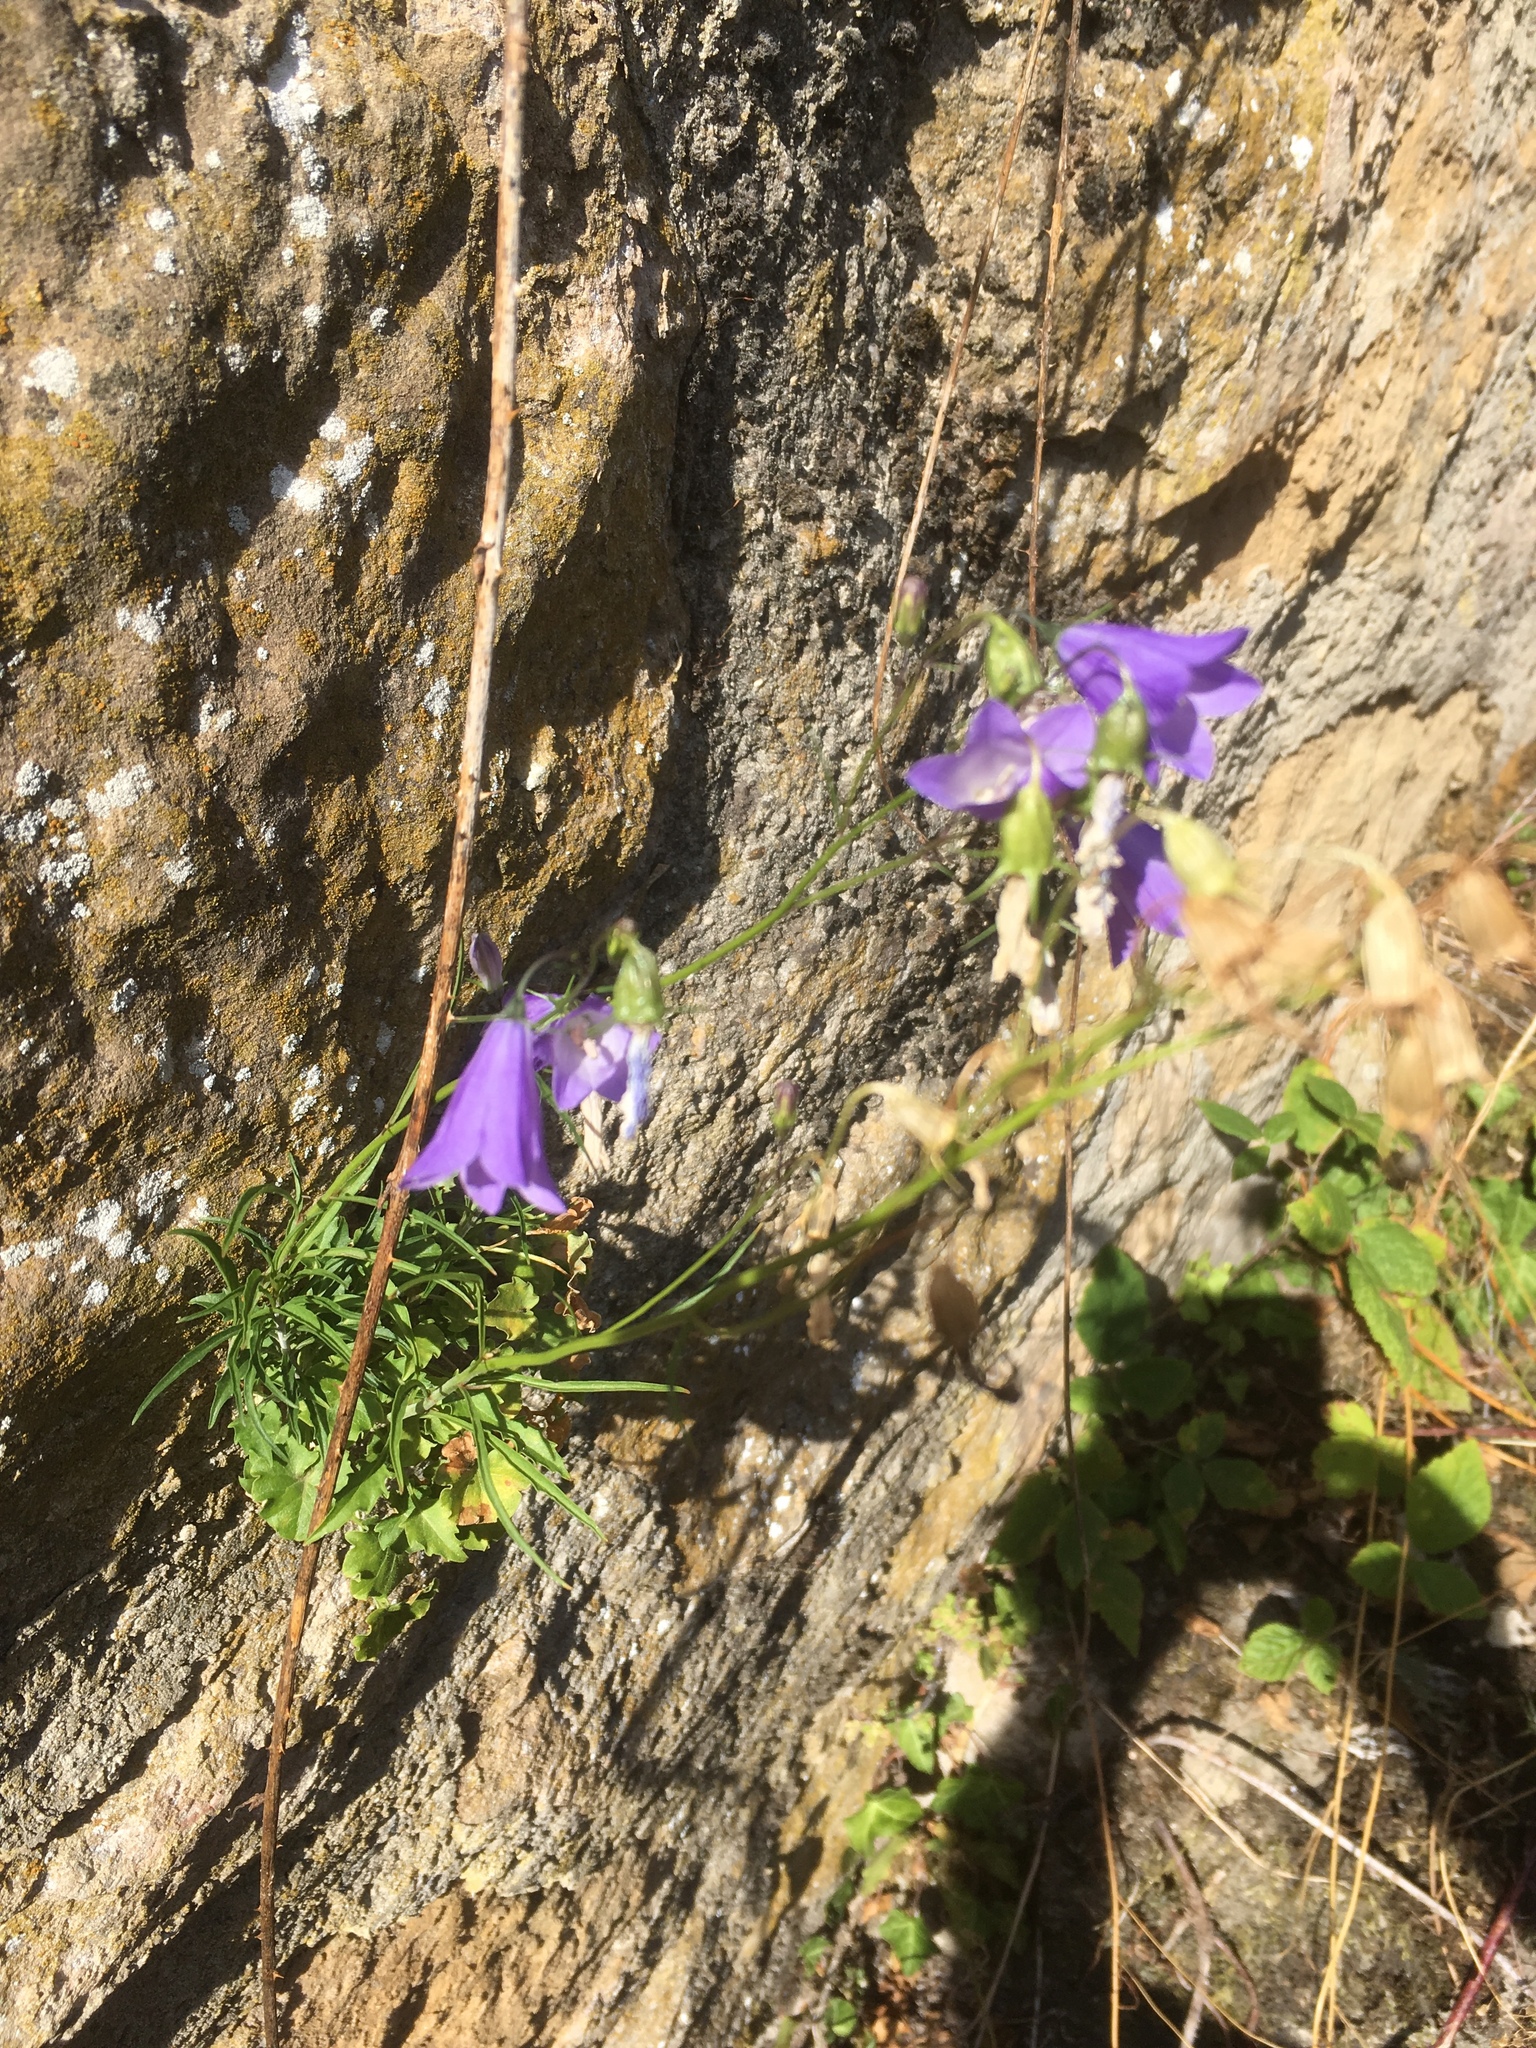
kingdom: Plantae
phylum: Tracheophyta
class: Magnoliopsida
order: Asterales
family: Campanulaceae
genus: Campanula
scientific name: Campanula rotundifolia
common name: Harebell
